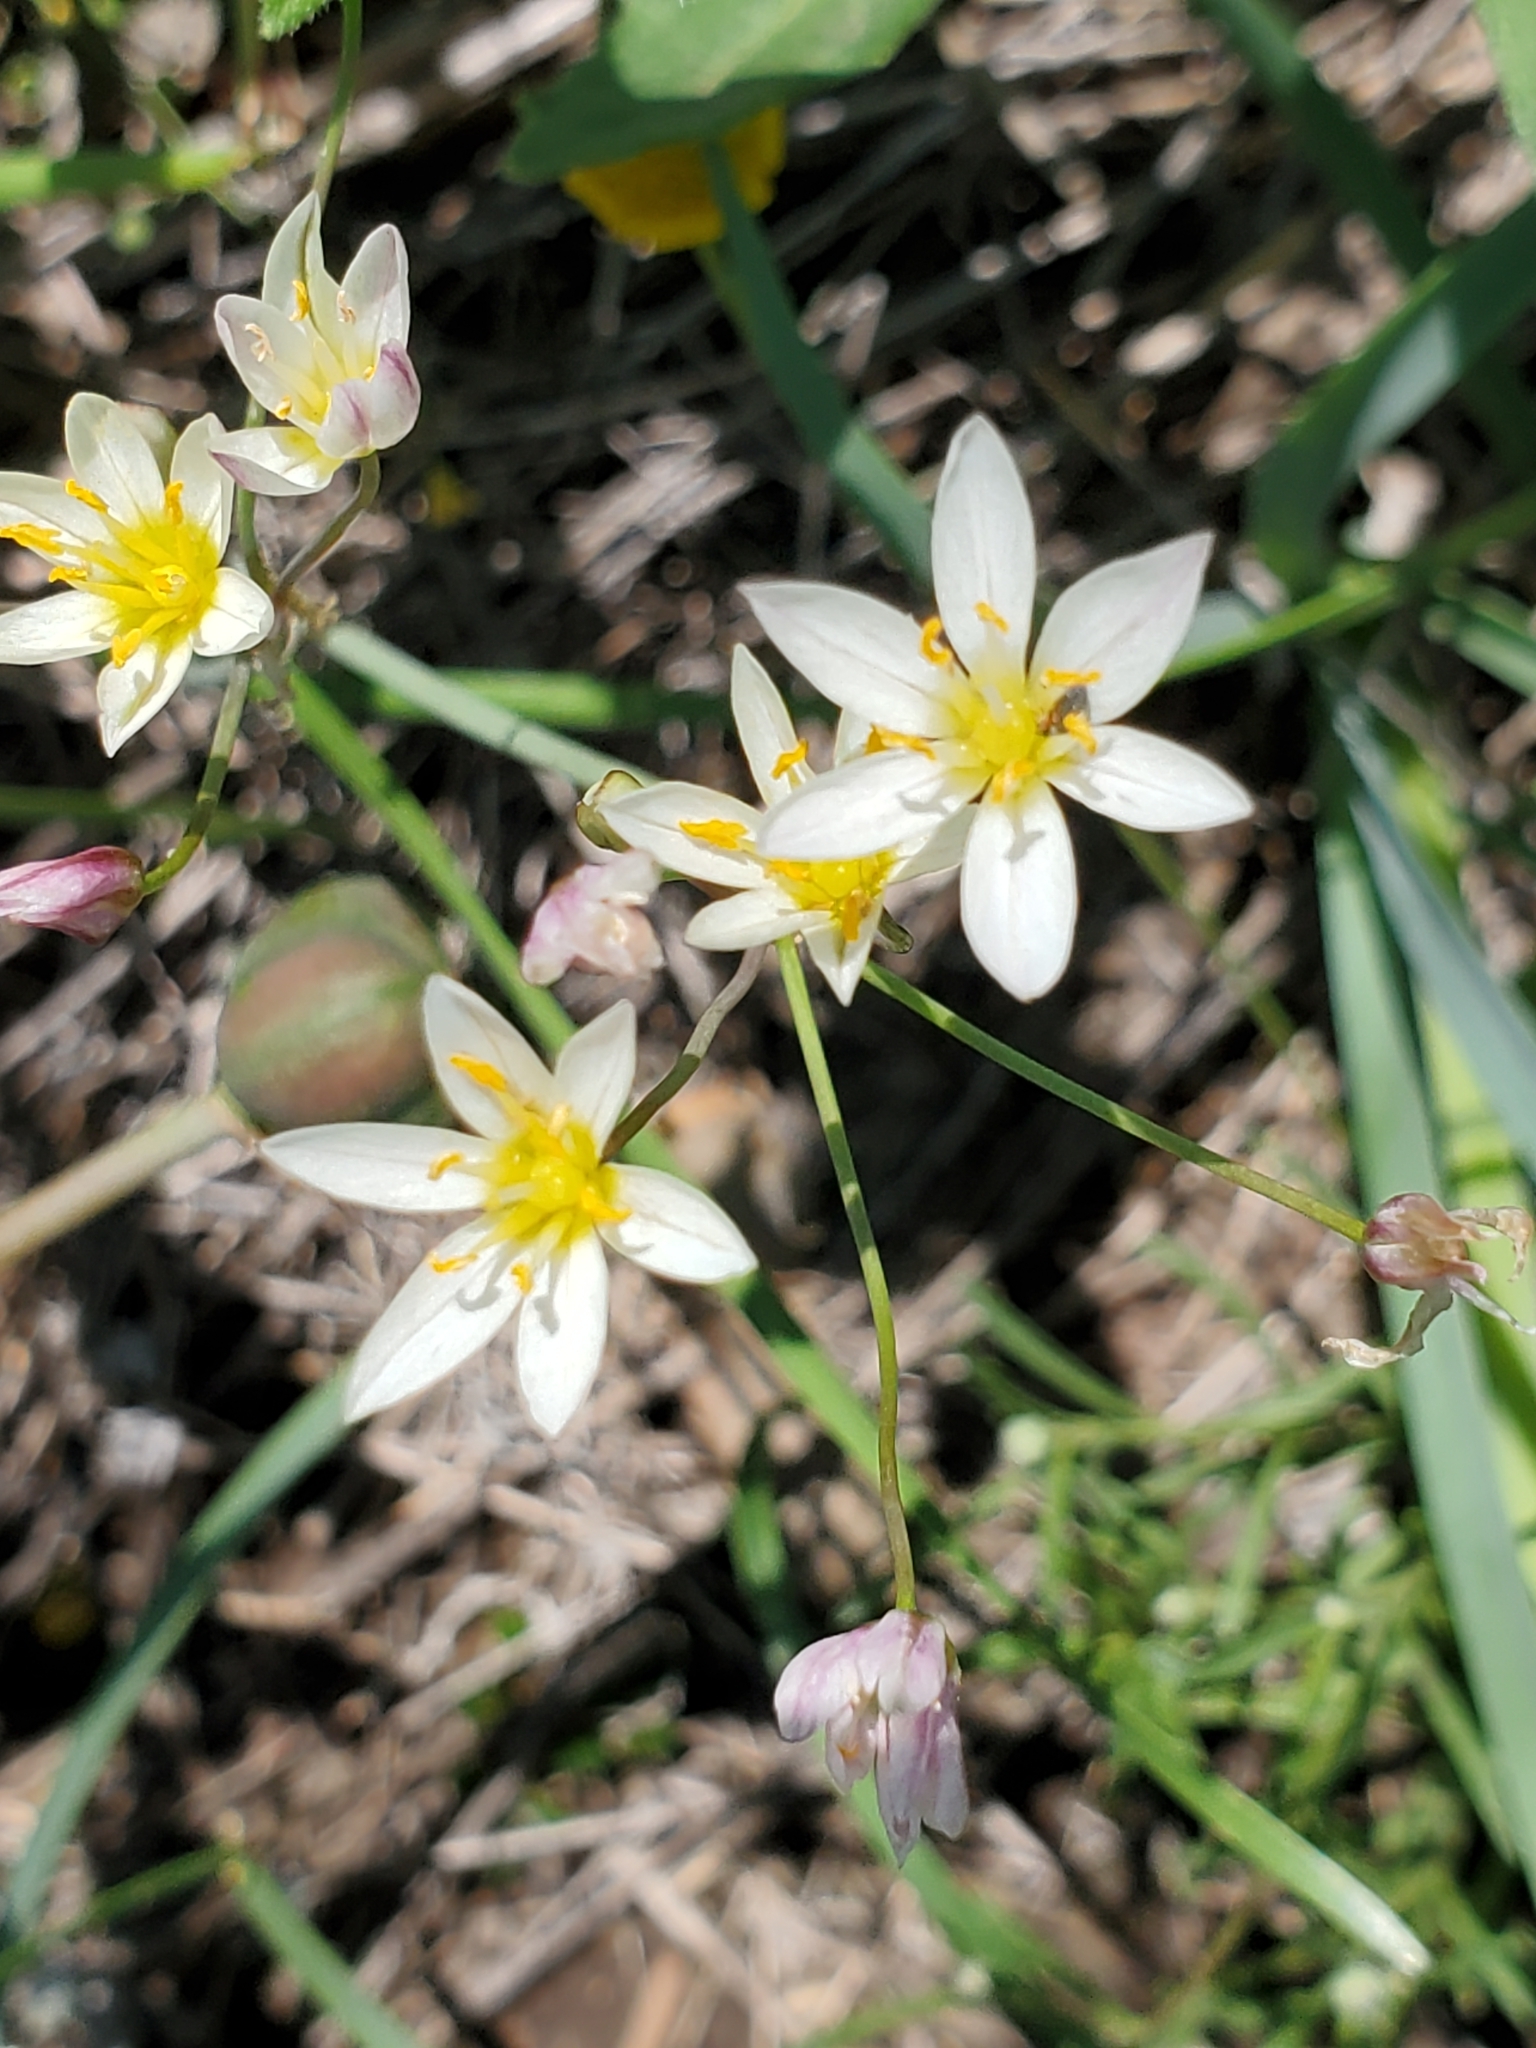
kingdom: Plantae
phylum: Tracheophyta
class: Liliopsida
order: Asparagales
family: Amaryllidaceae
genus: Nothoscordum
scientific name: Nothoscordum bivalve
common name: Crow-poison
